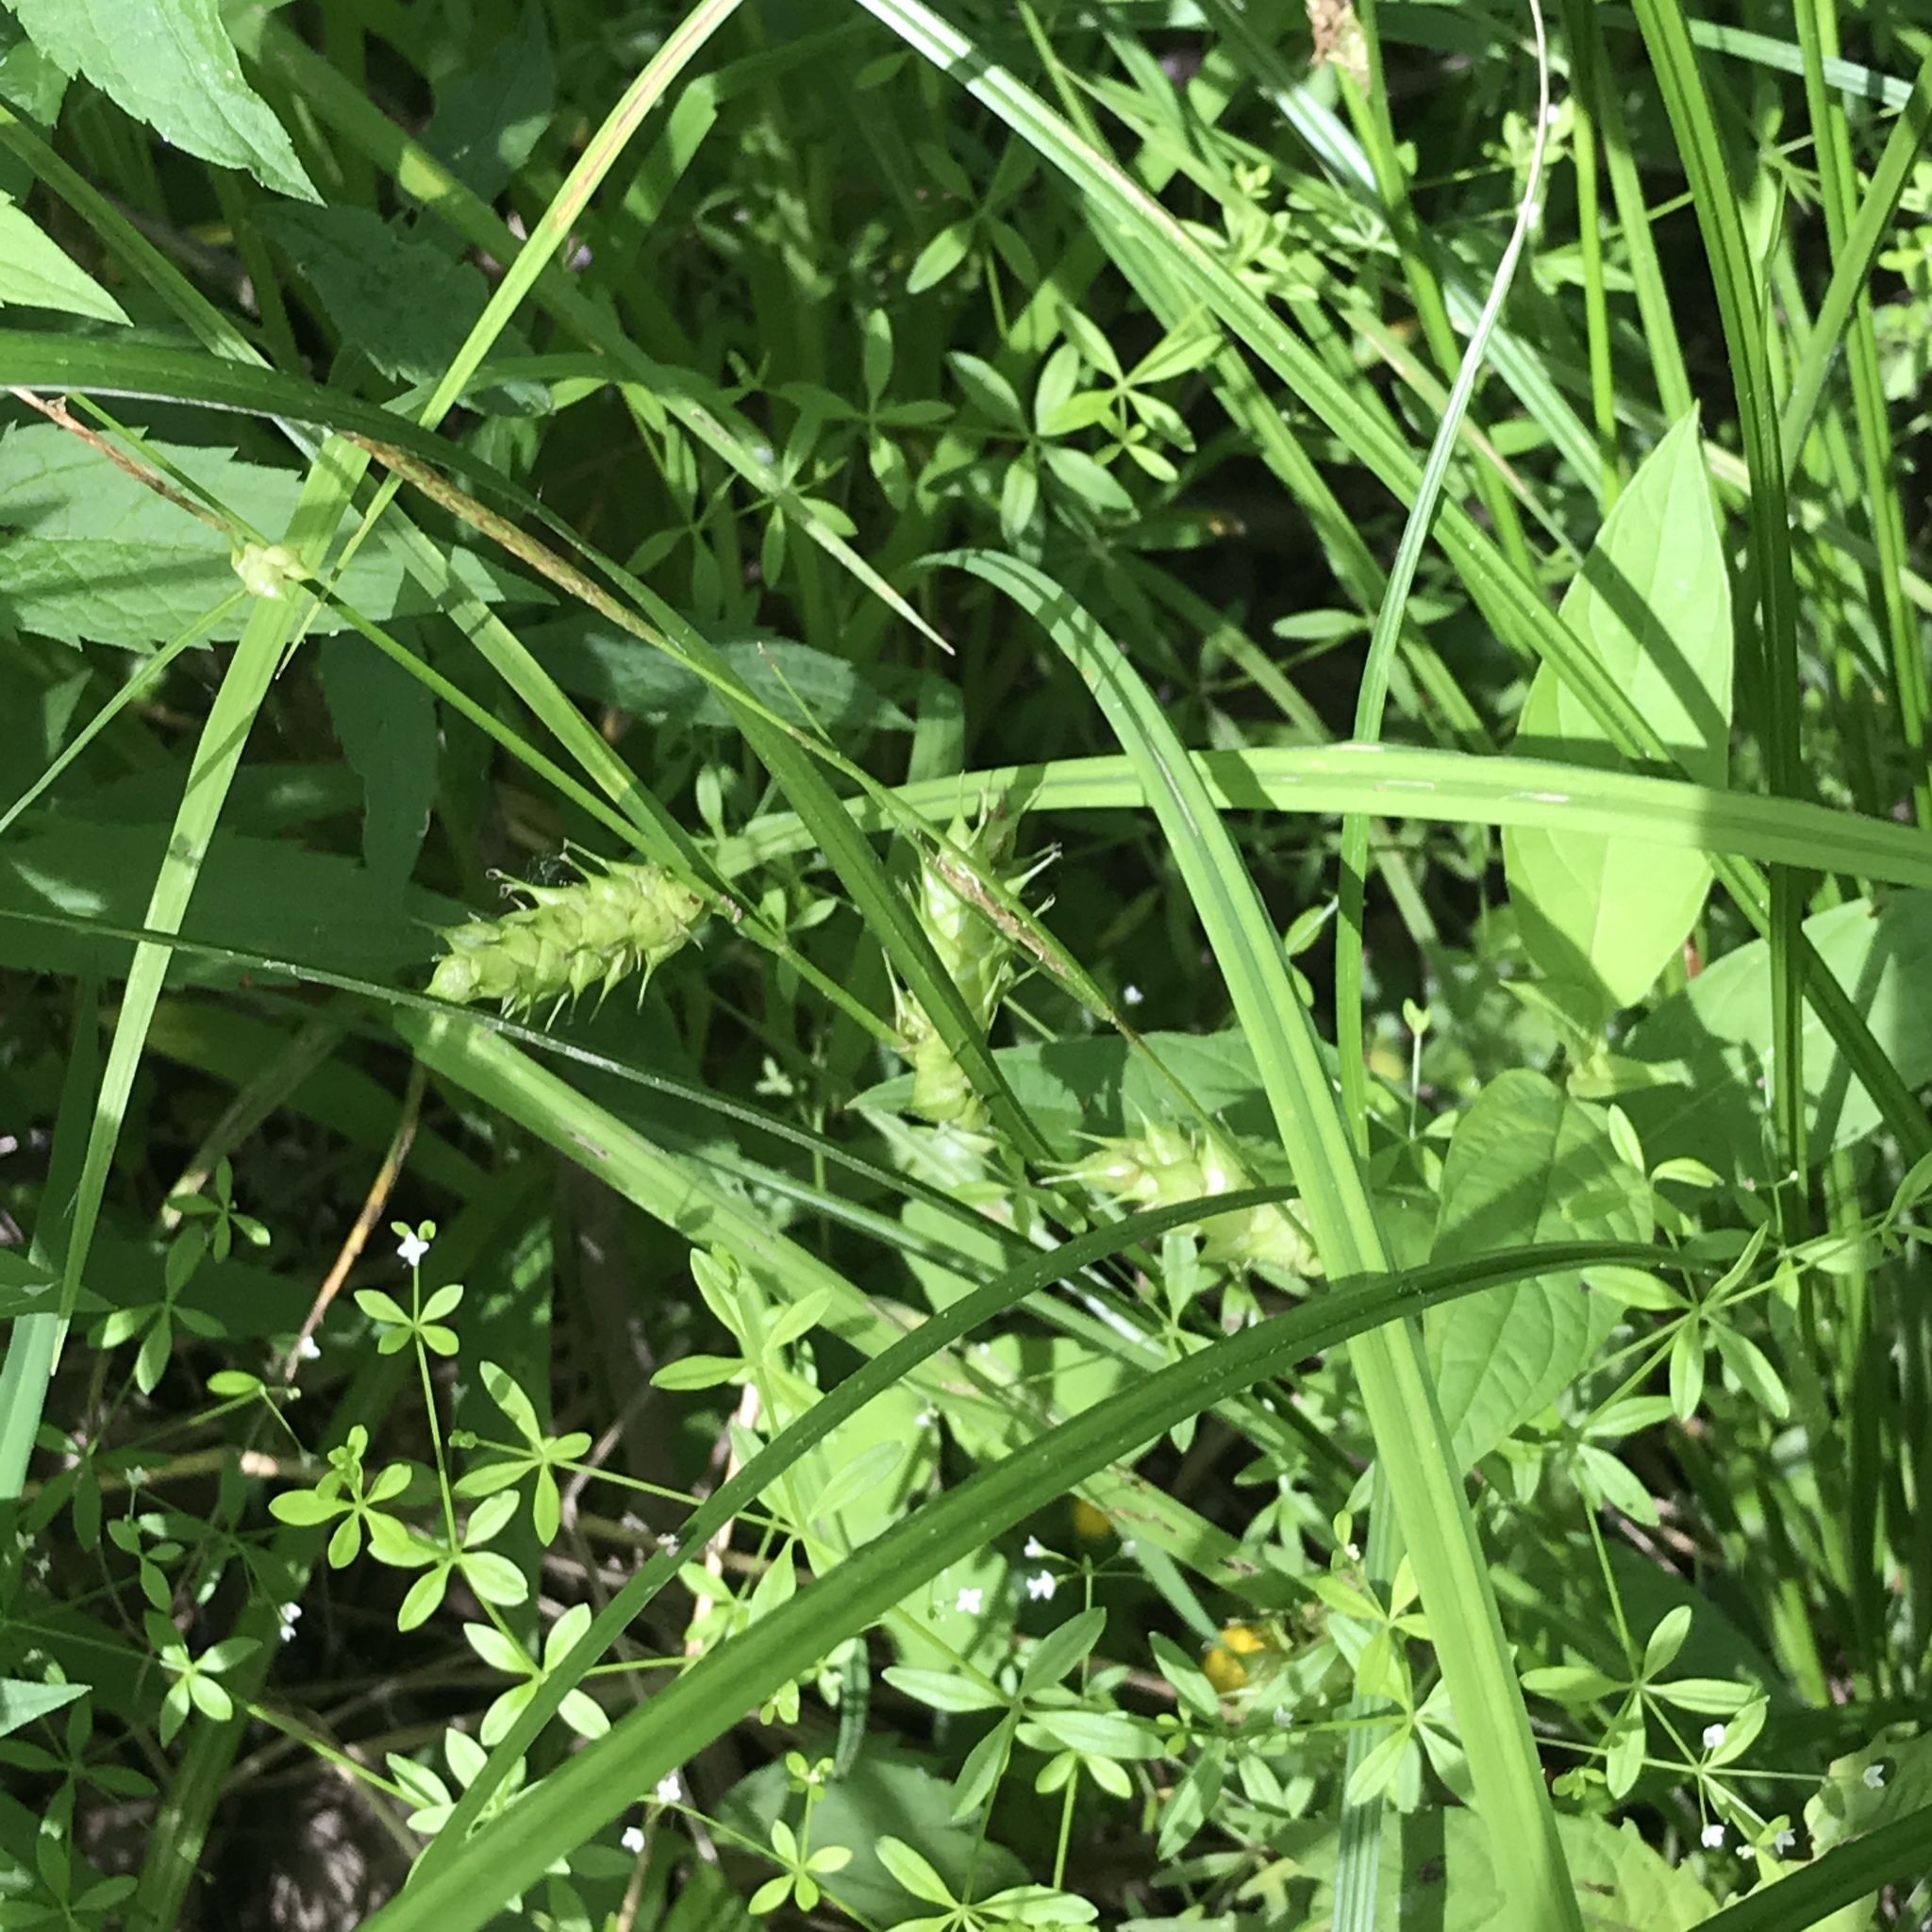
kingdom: Plantae
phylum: Tracheophyta
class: Liliopsida
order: Poales
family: Cyperaceae
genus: Carex
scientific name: Carex tuckermanii
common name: Tuckerman's sedge
